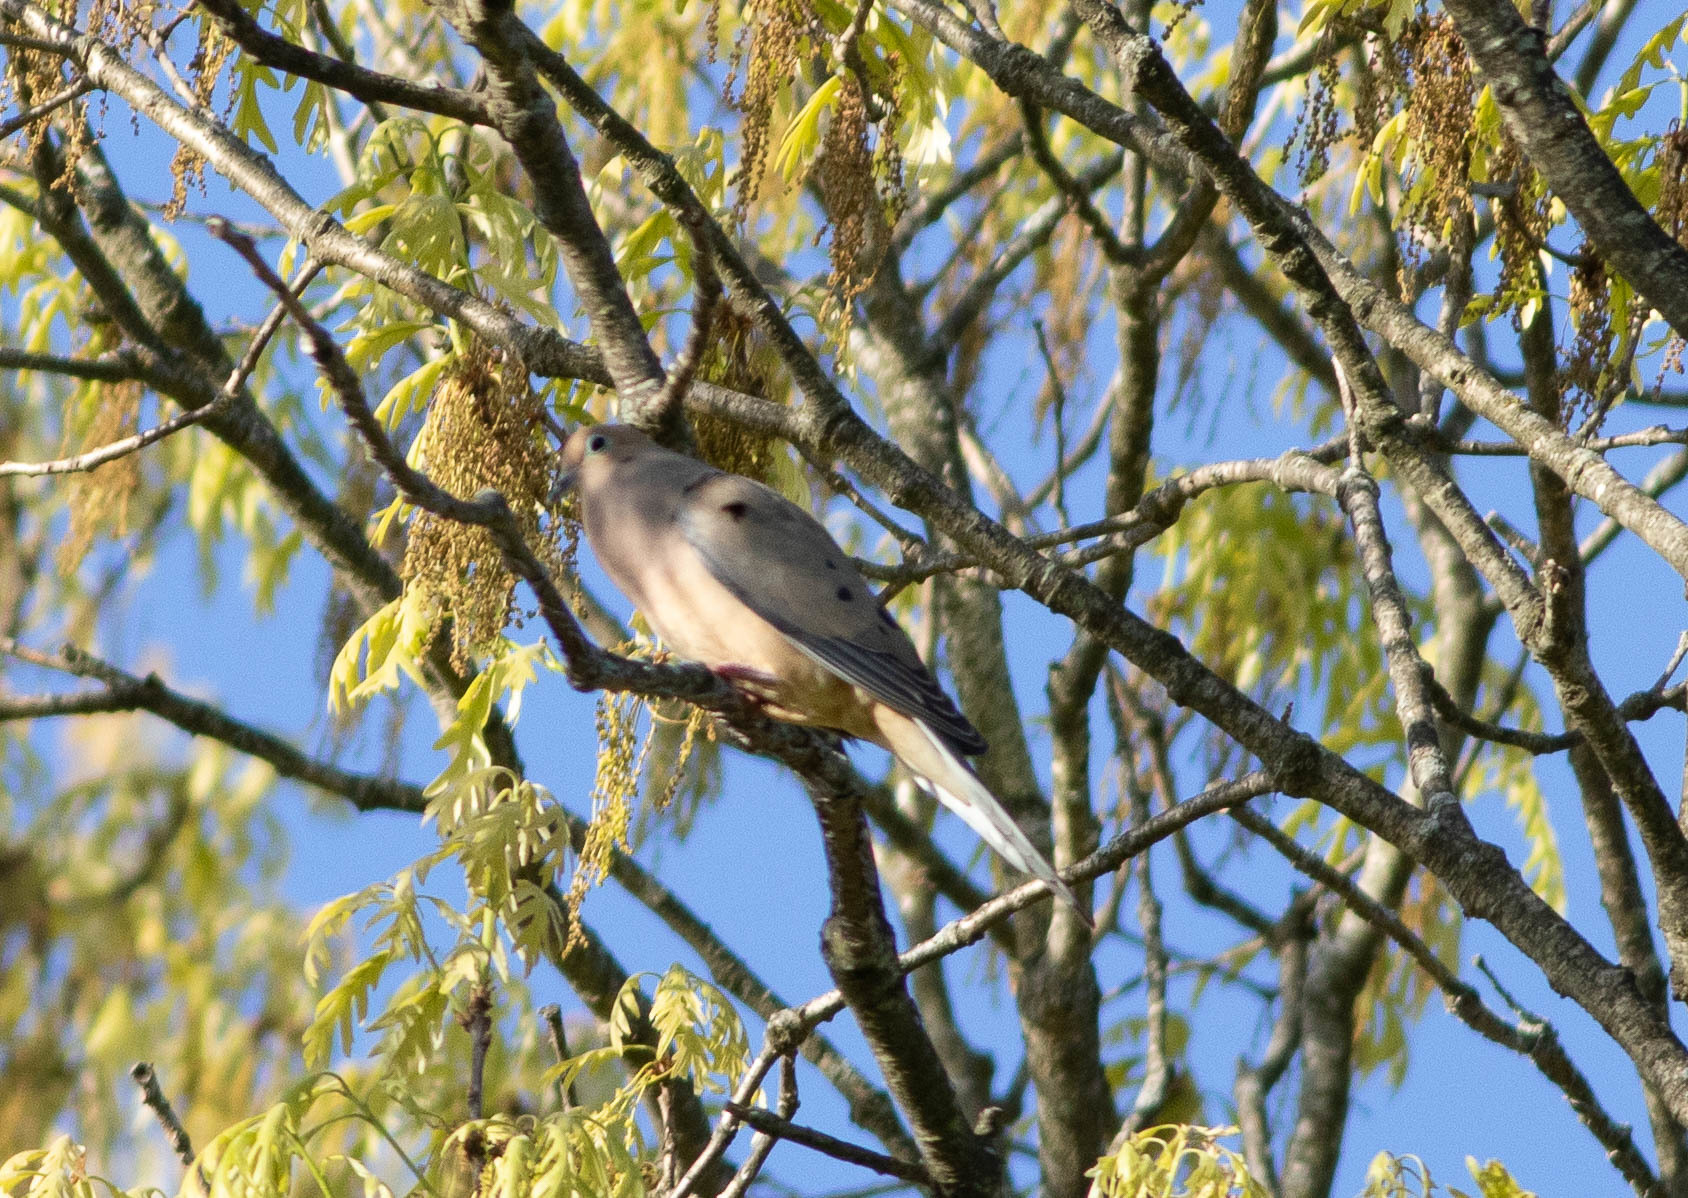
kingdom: Animalia
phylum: Chordata
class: Aves
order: Columbiformes
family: Columbidae
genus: Zenaida
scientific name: Zenaida macroura
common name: Mourning dove
